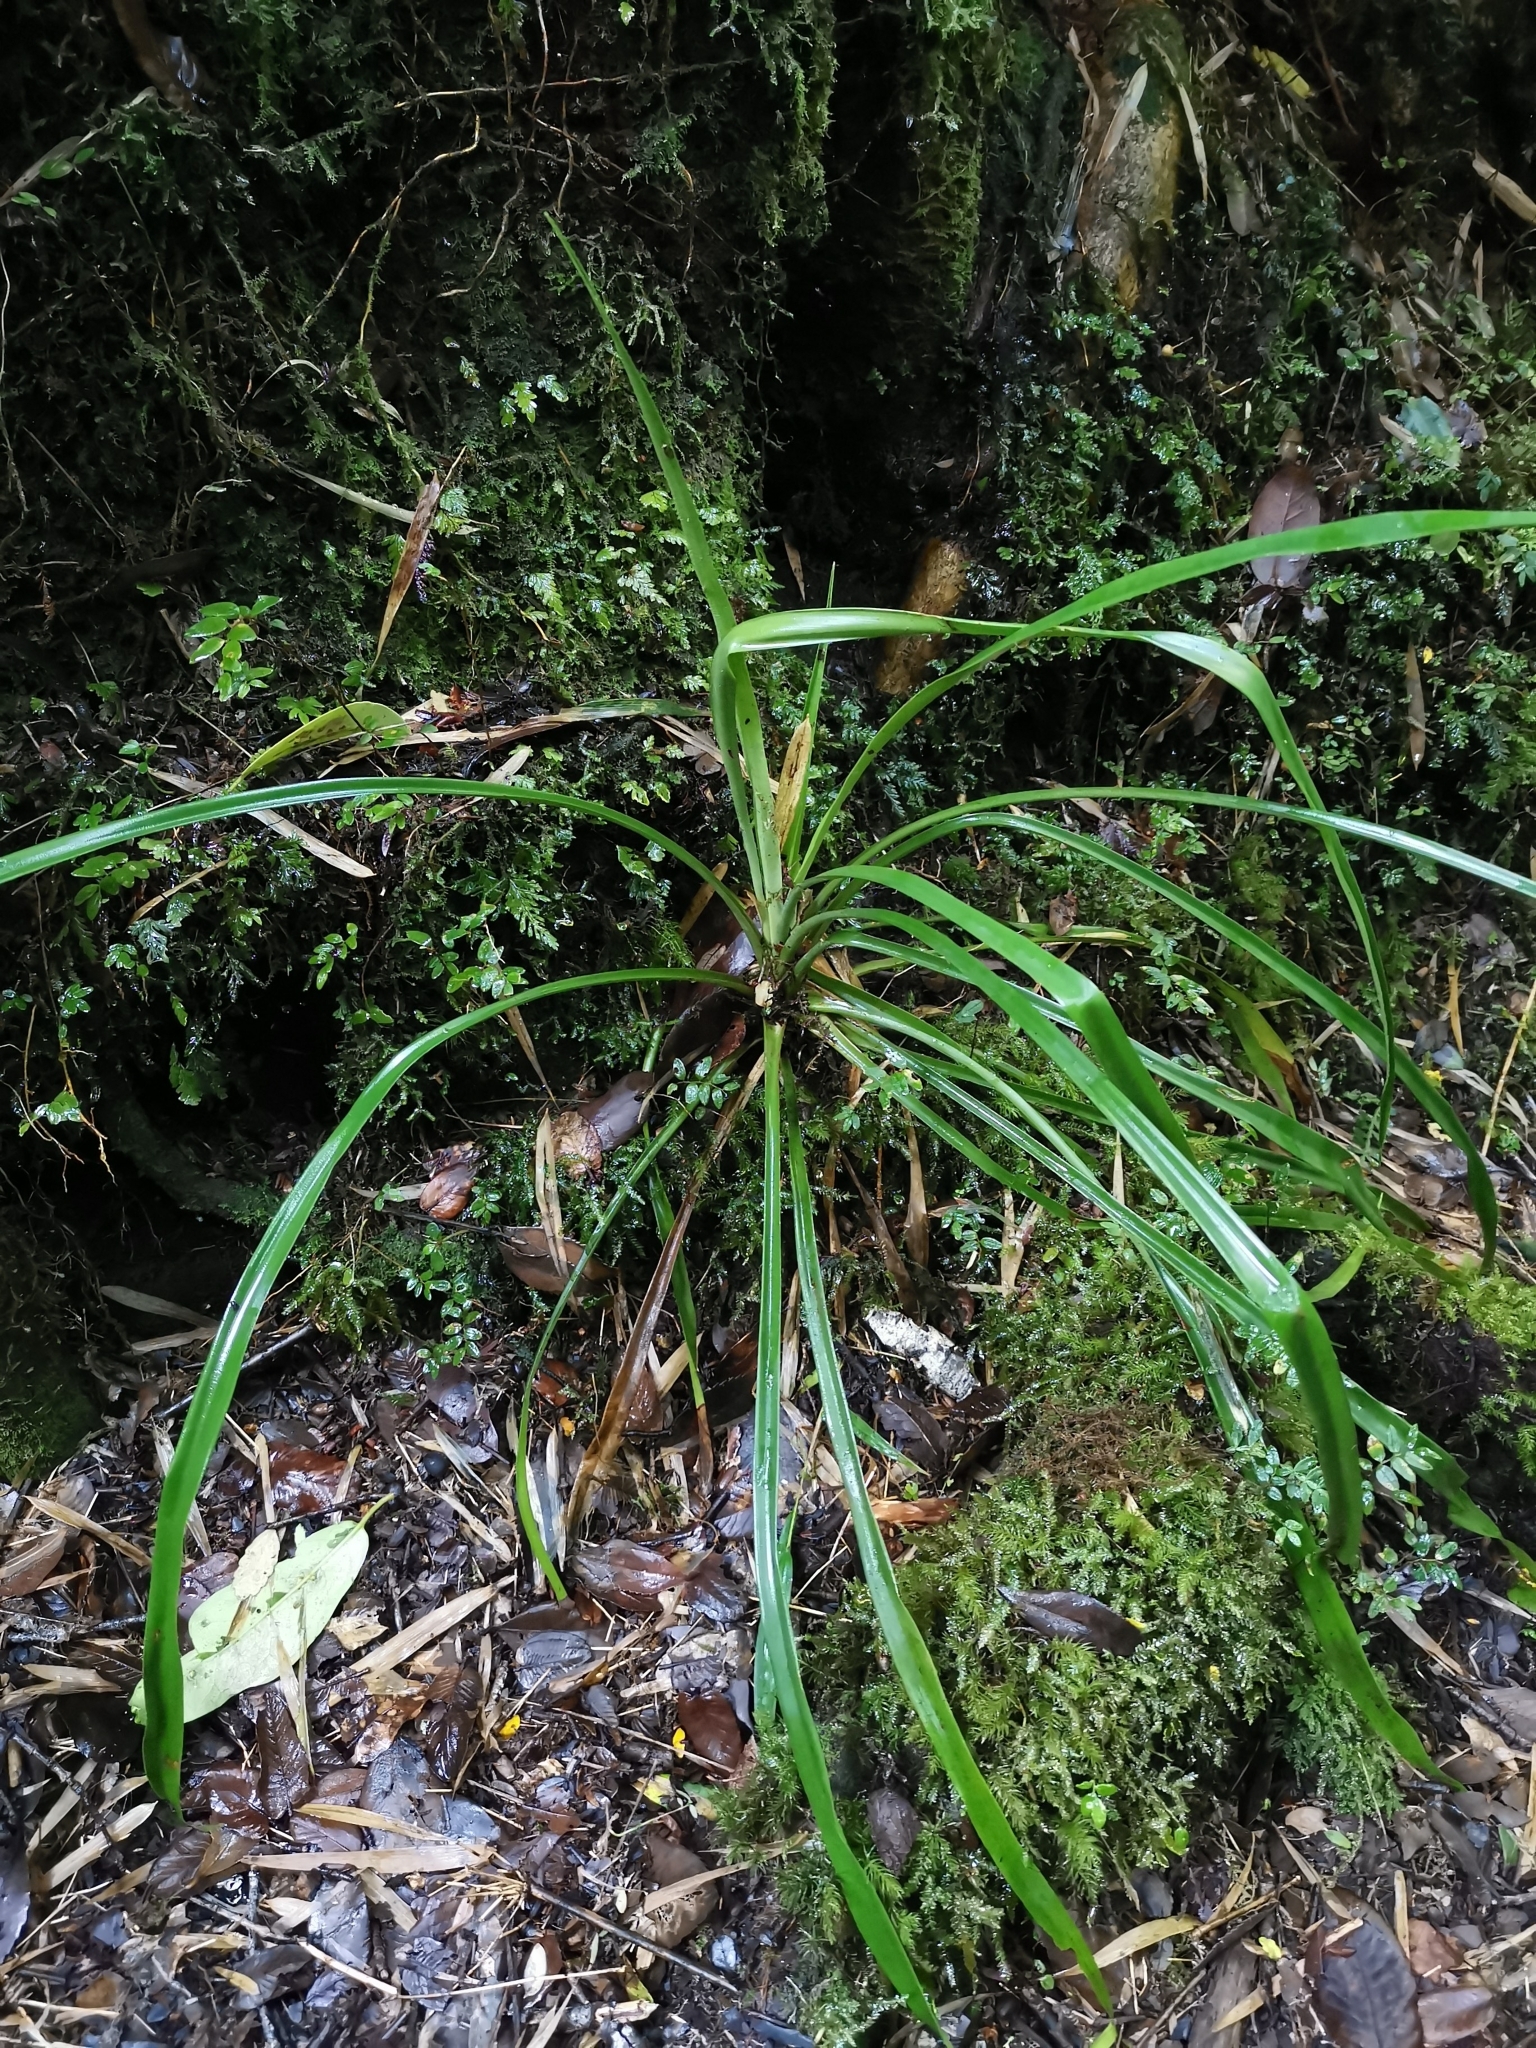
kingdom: Plantae
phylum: Tracheophyta
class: Liliopsida
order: Poales
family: Bromeliaceae
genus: Greigia
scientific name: Greigia pearcei
